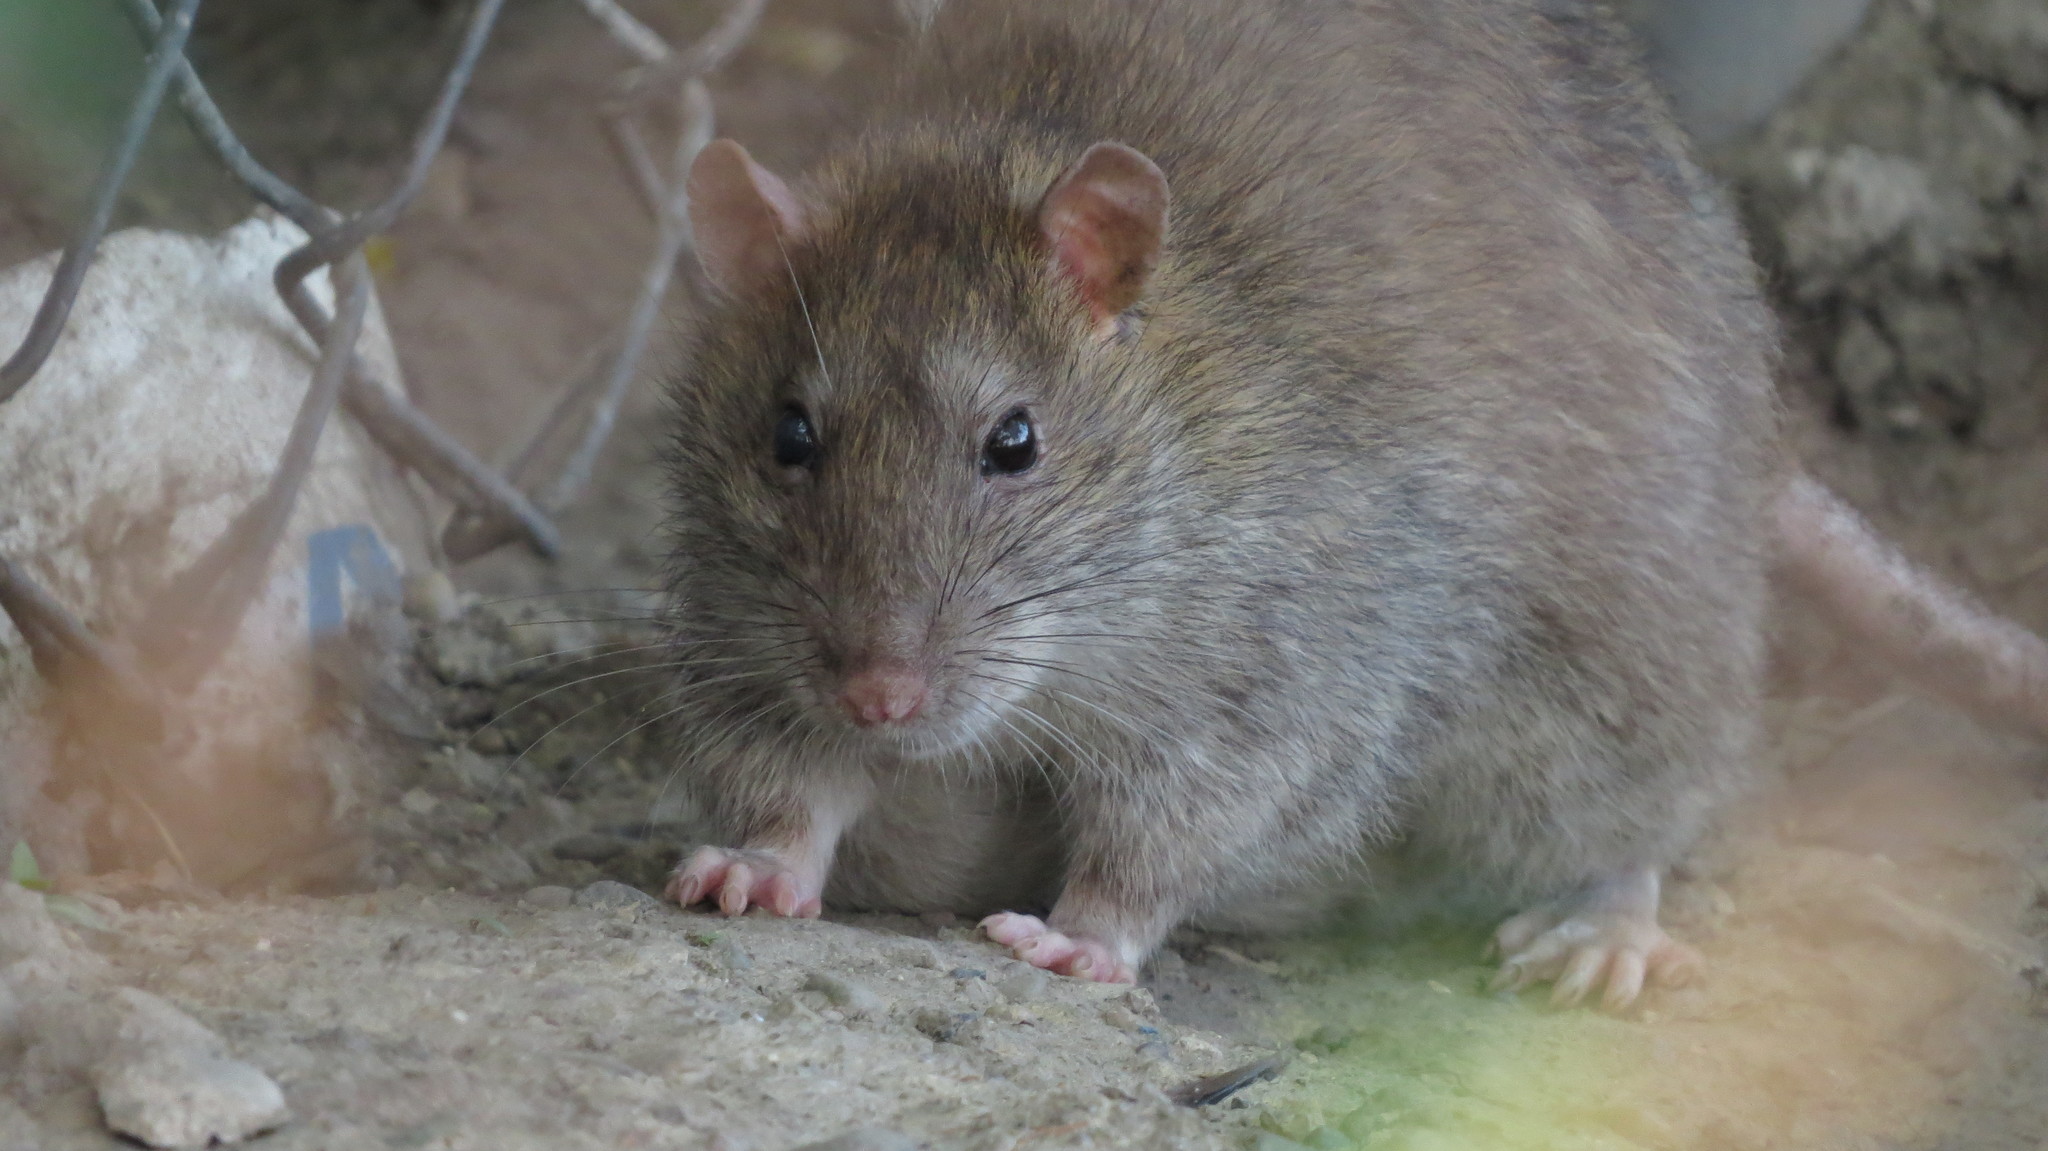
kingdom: Animalia
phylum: Chordata
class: Mammalia
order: Rodentia
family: Muridae
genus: Rattus
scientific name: Rattus norvegicus
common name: Brown rat
